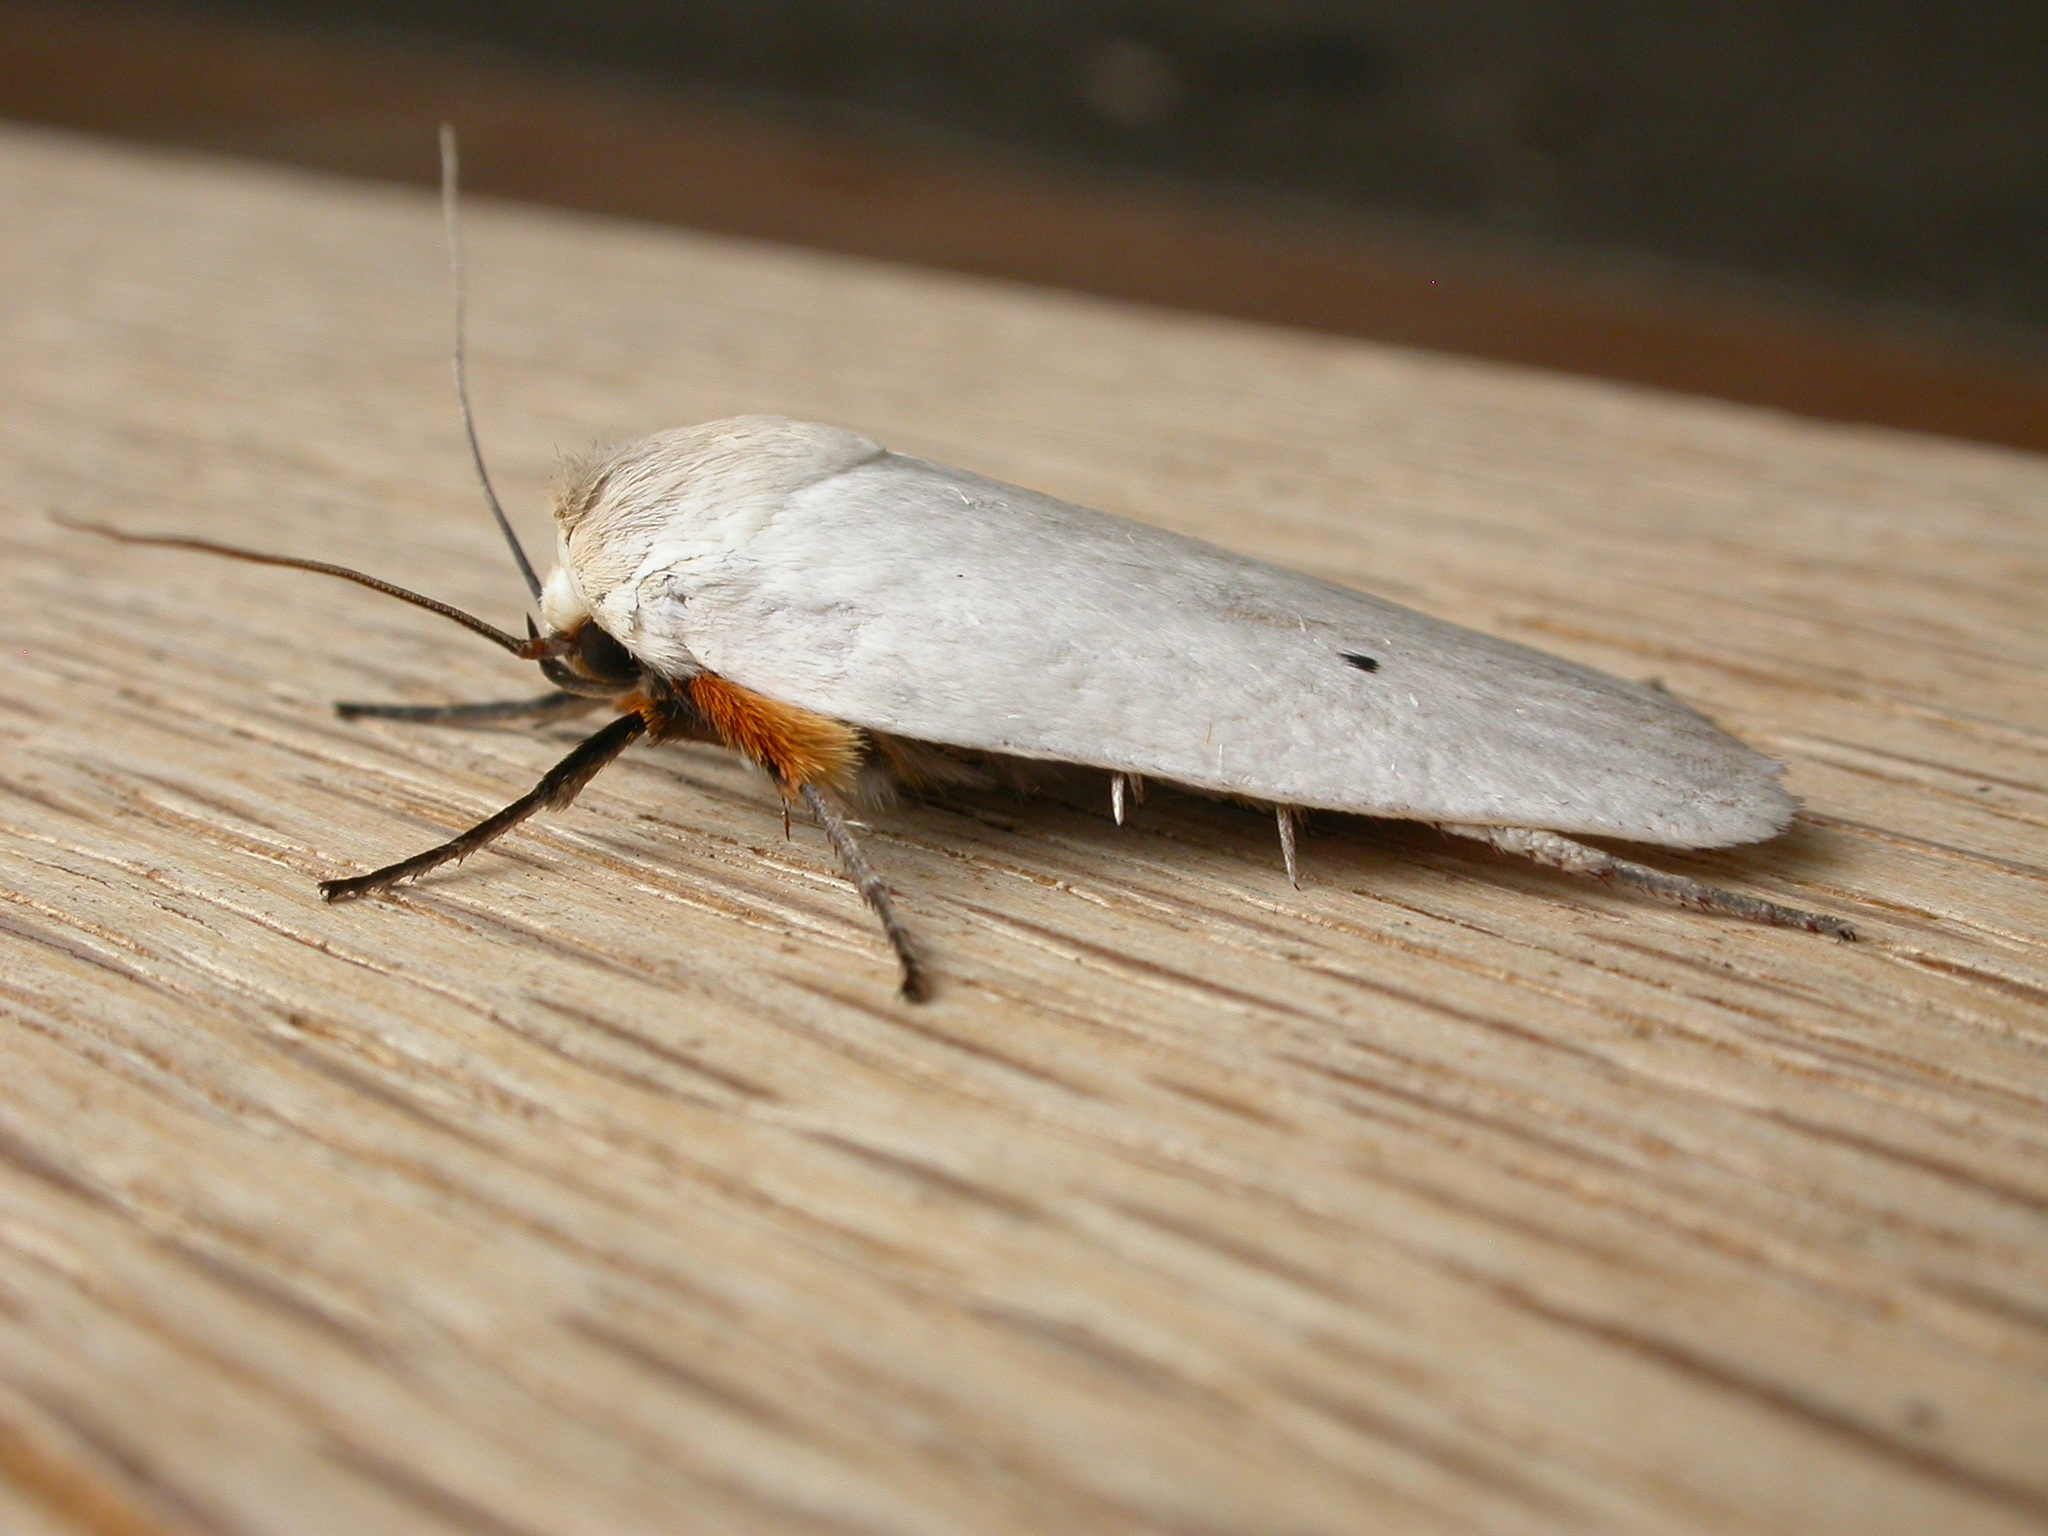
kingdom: Animalia
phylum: Arthropoda
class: Insecta
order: Lepidoptera
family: Xyloryctidae
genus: Maroga
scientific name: Maroga melanostigma
